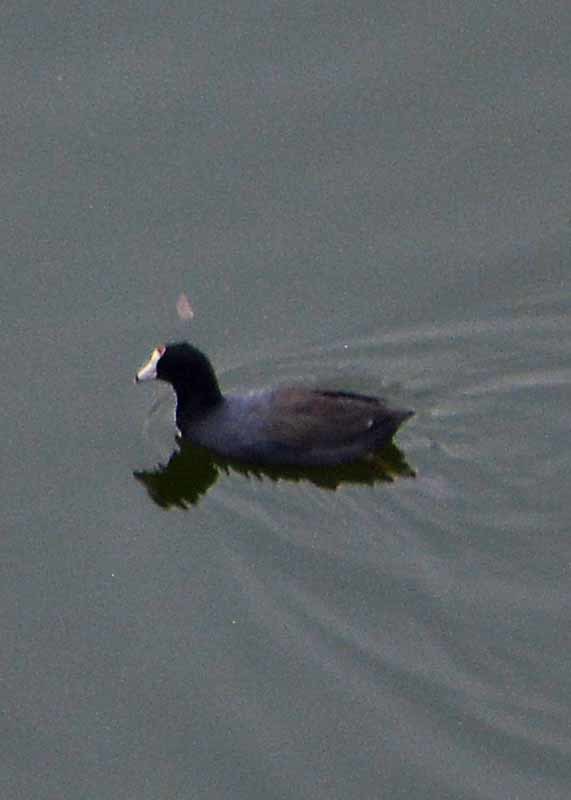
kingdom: Animalia
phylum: Chordata
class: Aves
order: Gruiformes
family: Rallidae
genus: Fulica
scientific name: Fulica americana
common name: American coot
